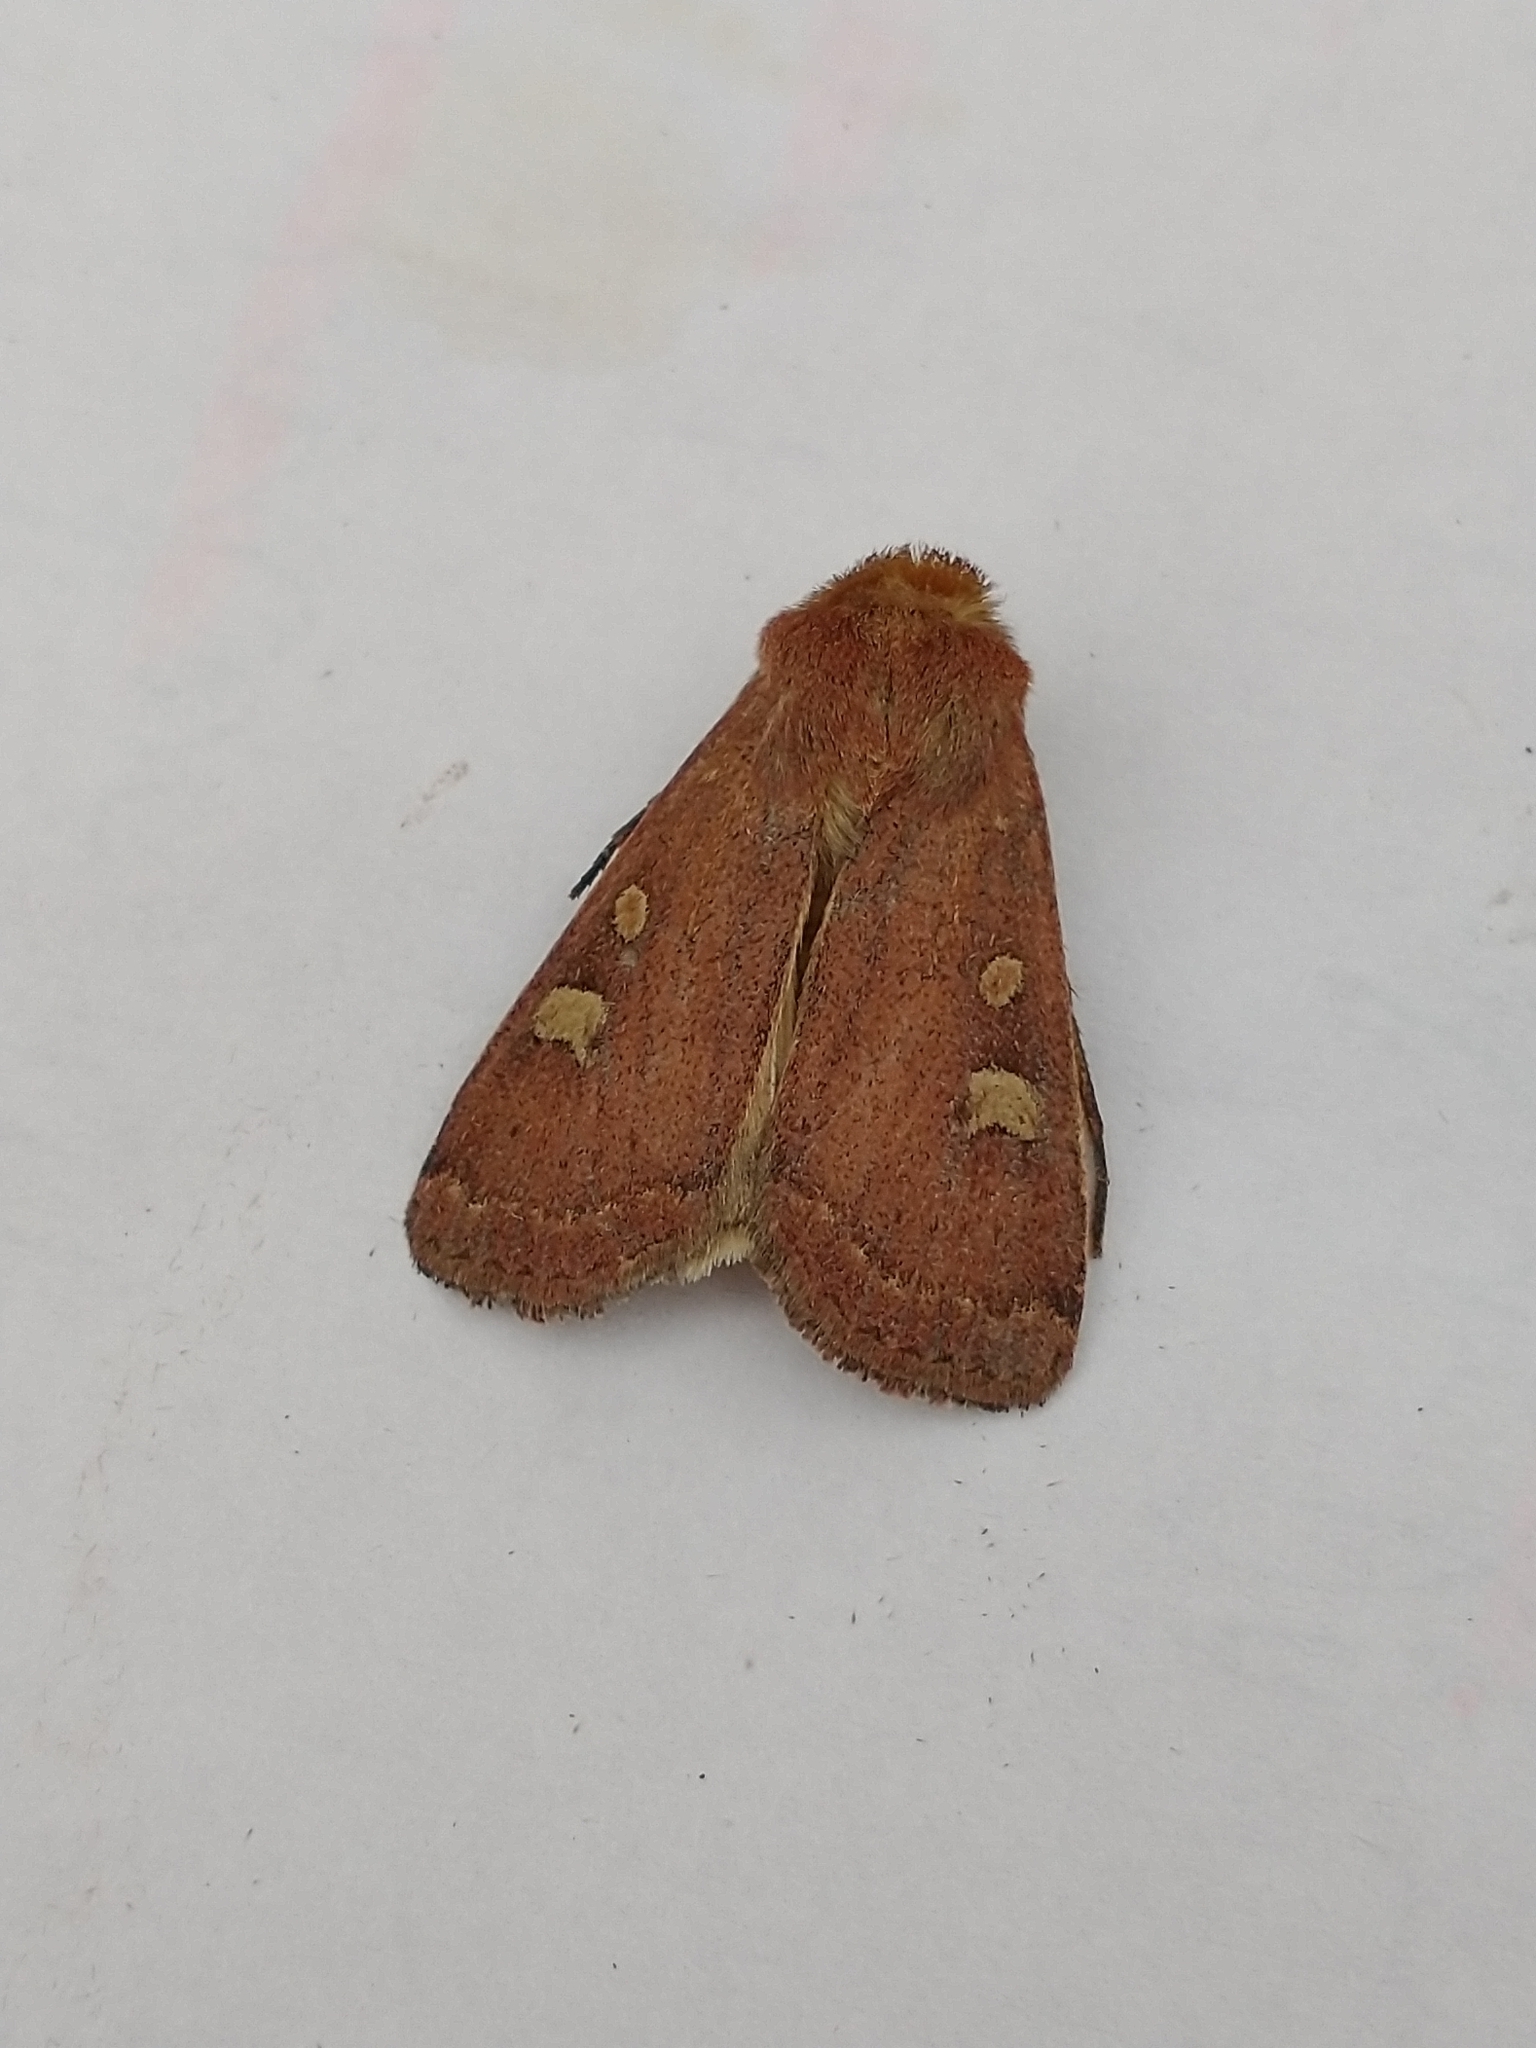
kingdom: Animalia
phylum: Arthropoda
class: Insecta
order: Lepidoptera
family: Noctuidae
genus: Xestia
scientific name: Xestia xanthographa
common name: Square-spot rustic
